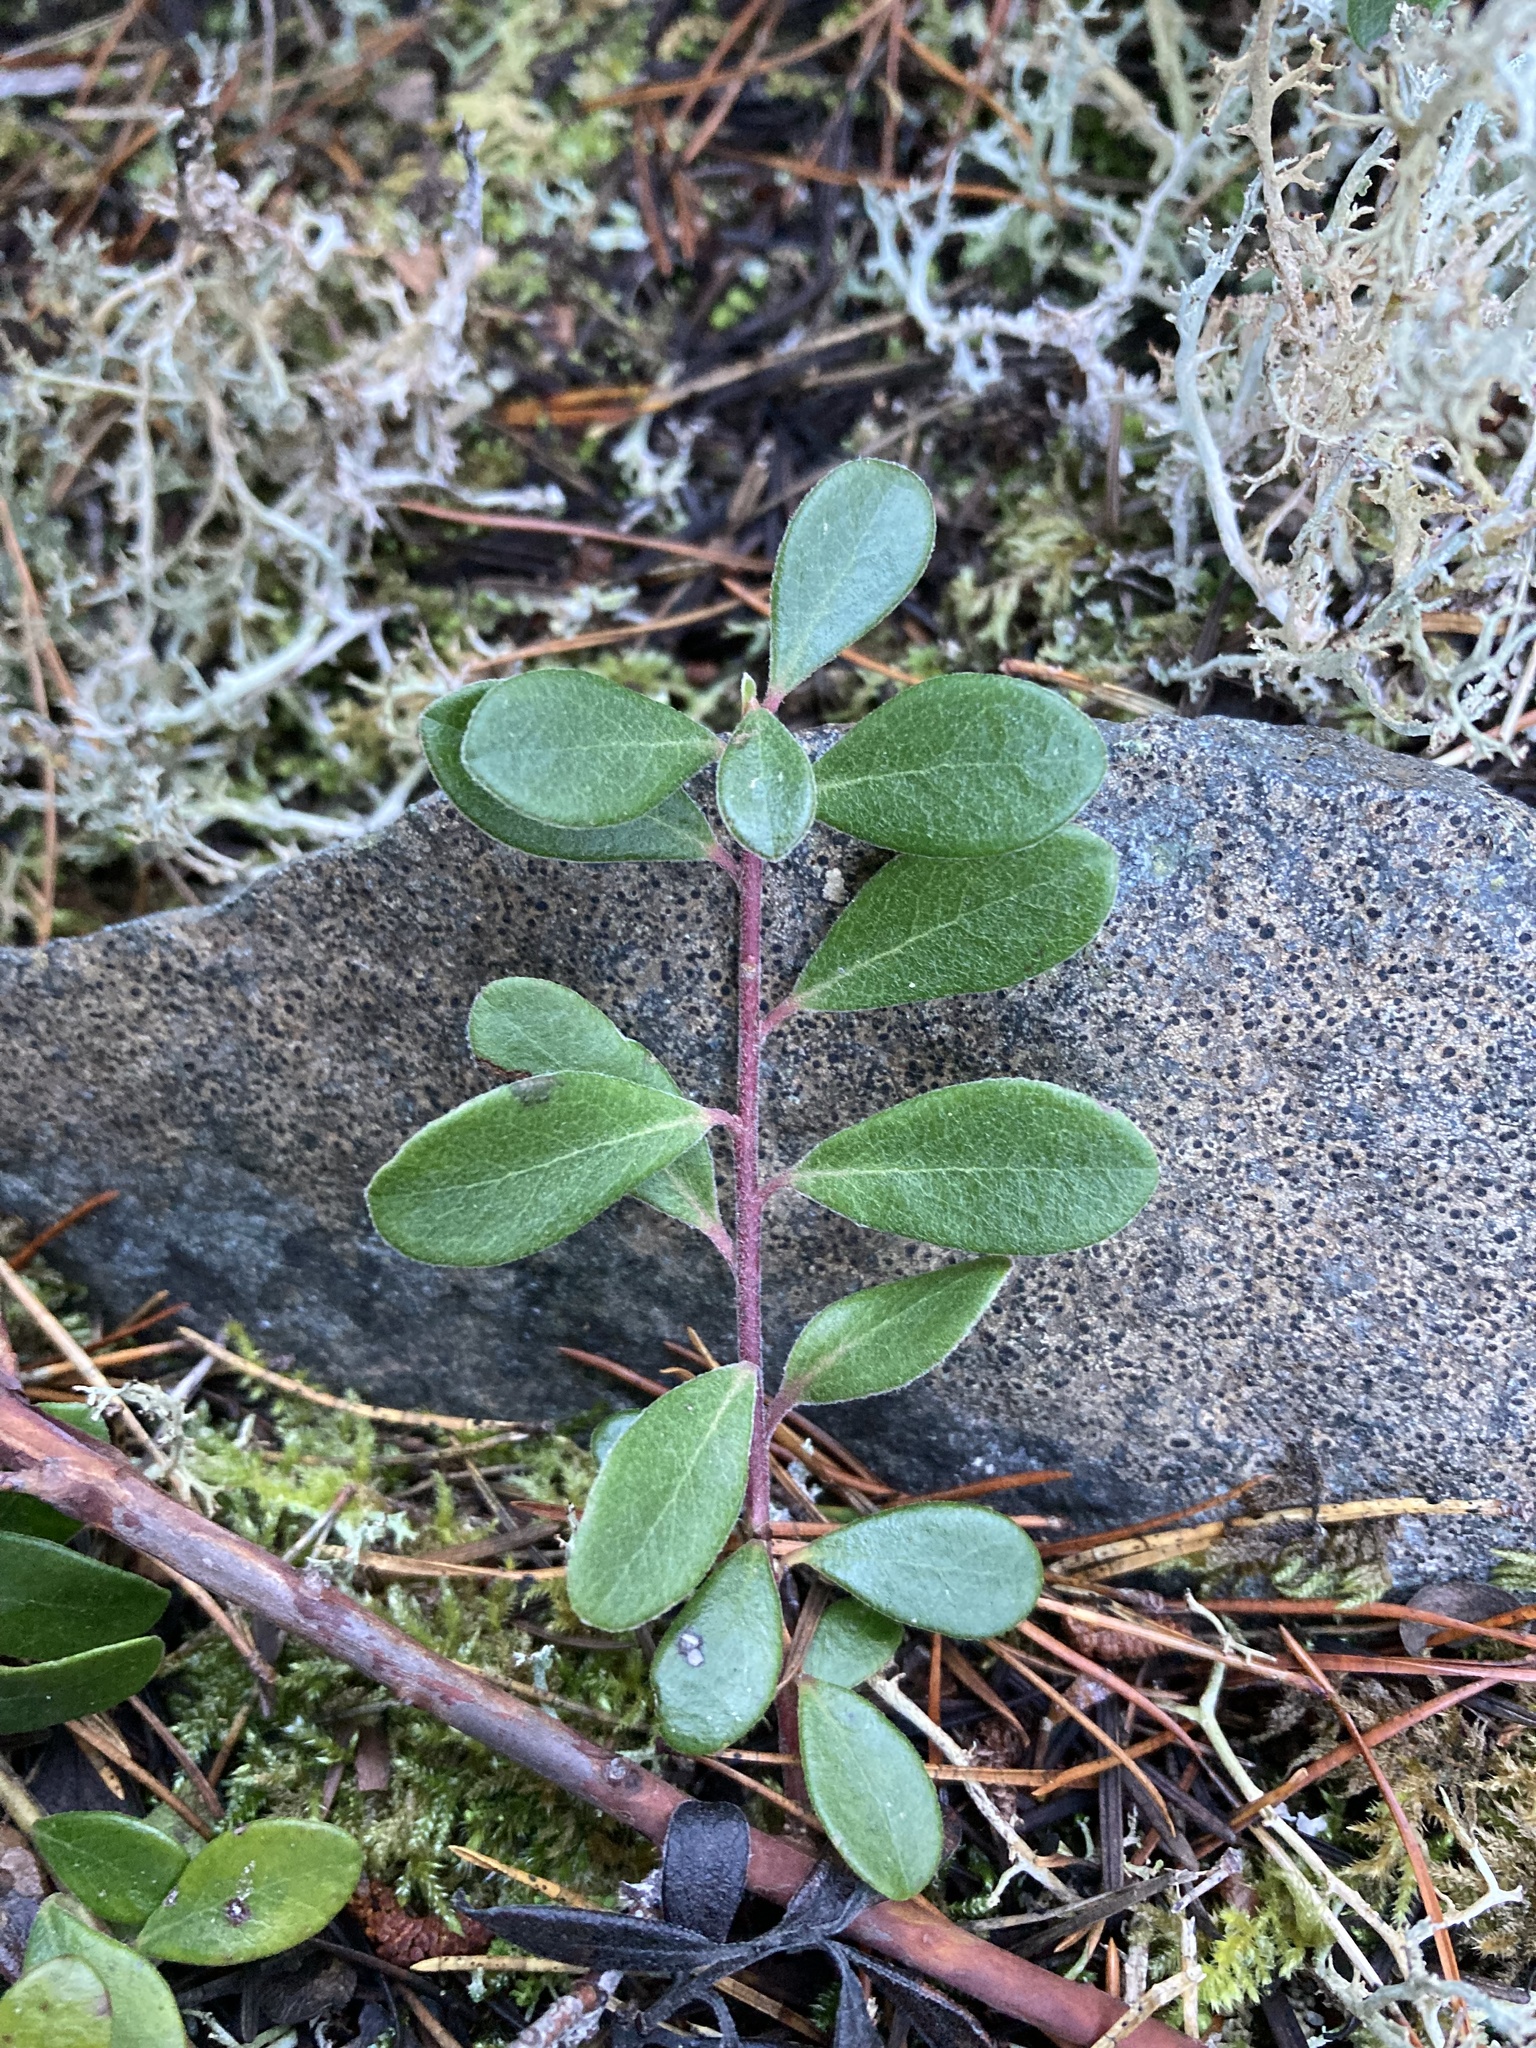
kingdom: Plantae
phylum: Tracheophyta
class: Magnoliopsida
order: Ericales
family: Ericaceae
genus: Arctostaphylos
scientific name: Arctostaphylos uva-ursi
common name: Bearberry
